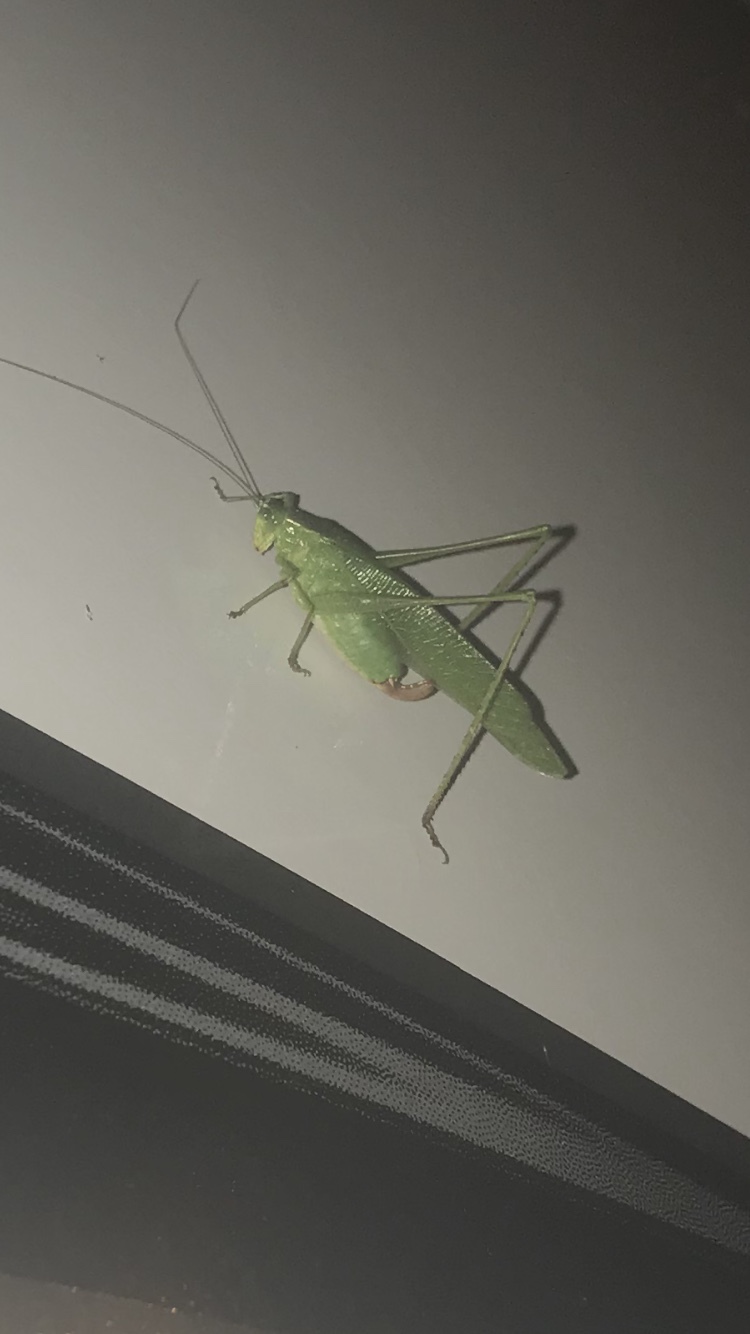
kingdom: Animalia
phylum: Arthropoda
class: Insecta
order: Orthoptera
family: Tettigoniidae
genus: Scudderia
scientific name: Scudderia furcata
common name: Fork-tailed bush katydid
